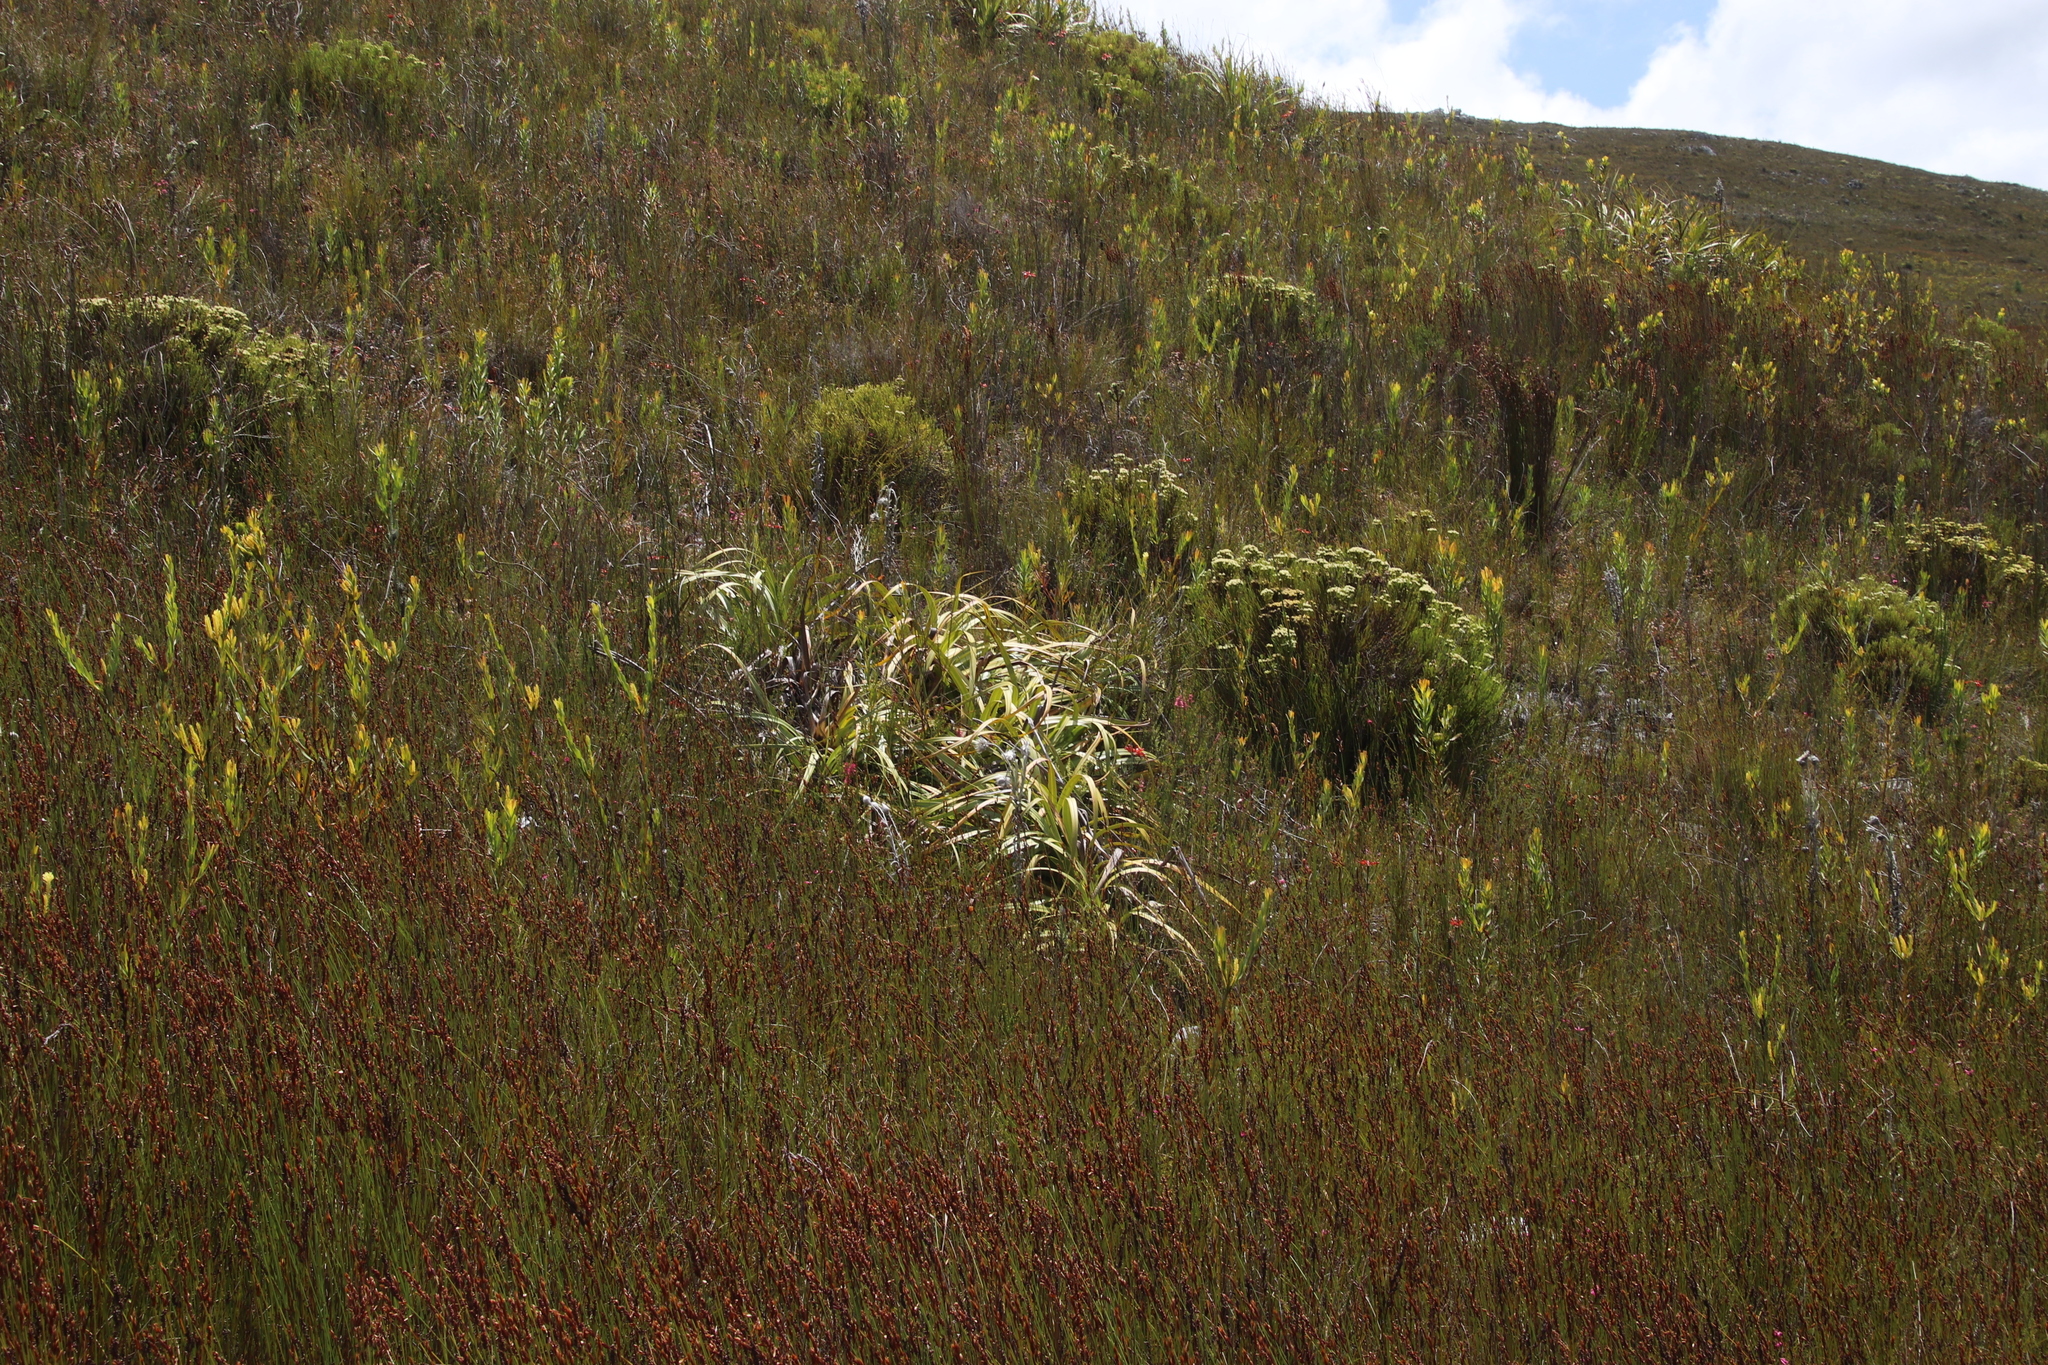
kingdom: Plantae
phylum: Tracheophyta
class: Liliopsida
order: Poales
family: Cyperaceae
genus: Tetraria
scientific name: Tetraria thermalis
